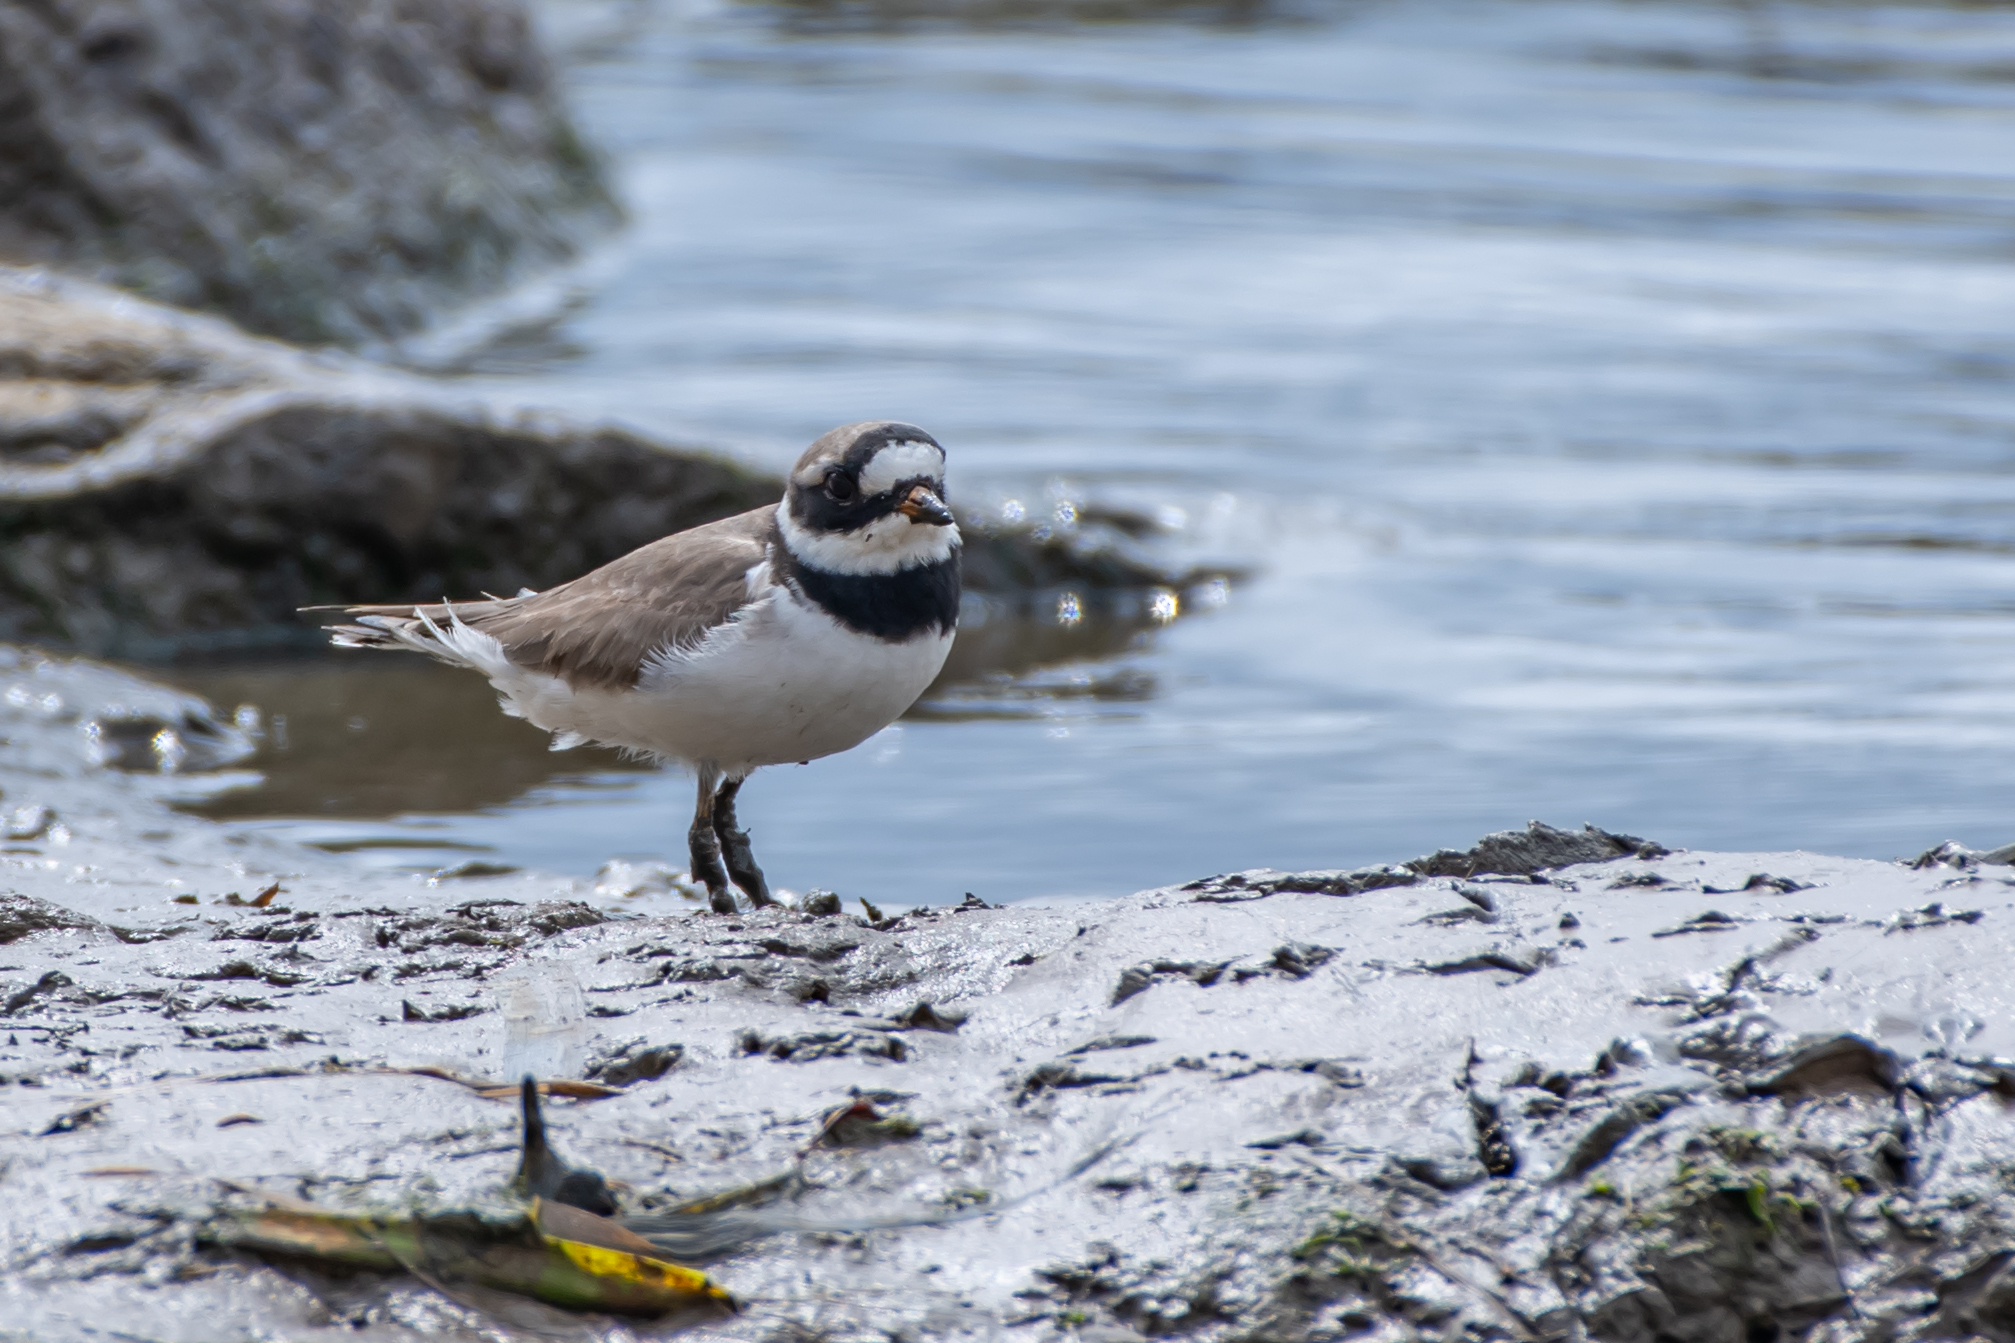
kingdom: Animalia
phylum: Chordata
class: Aves
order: Charadriiformes
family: Charadriidae
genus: Charadrius
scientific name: Charadrius hiaticula
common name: Common ringed plover
